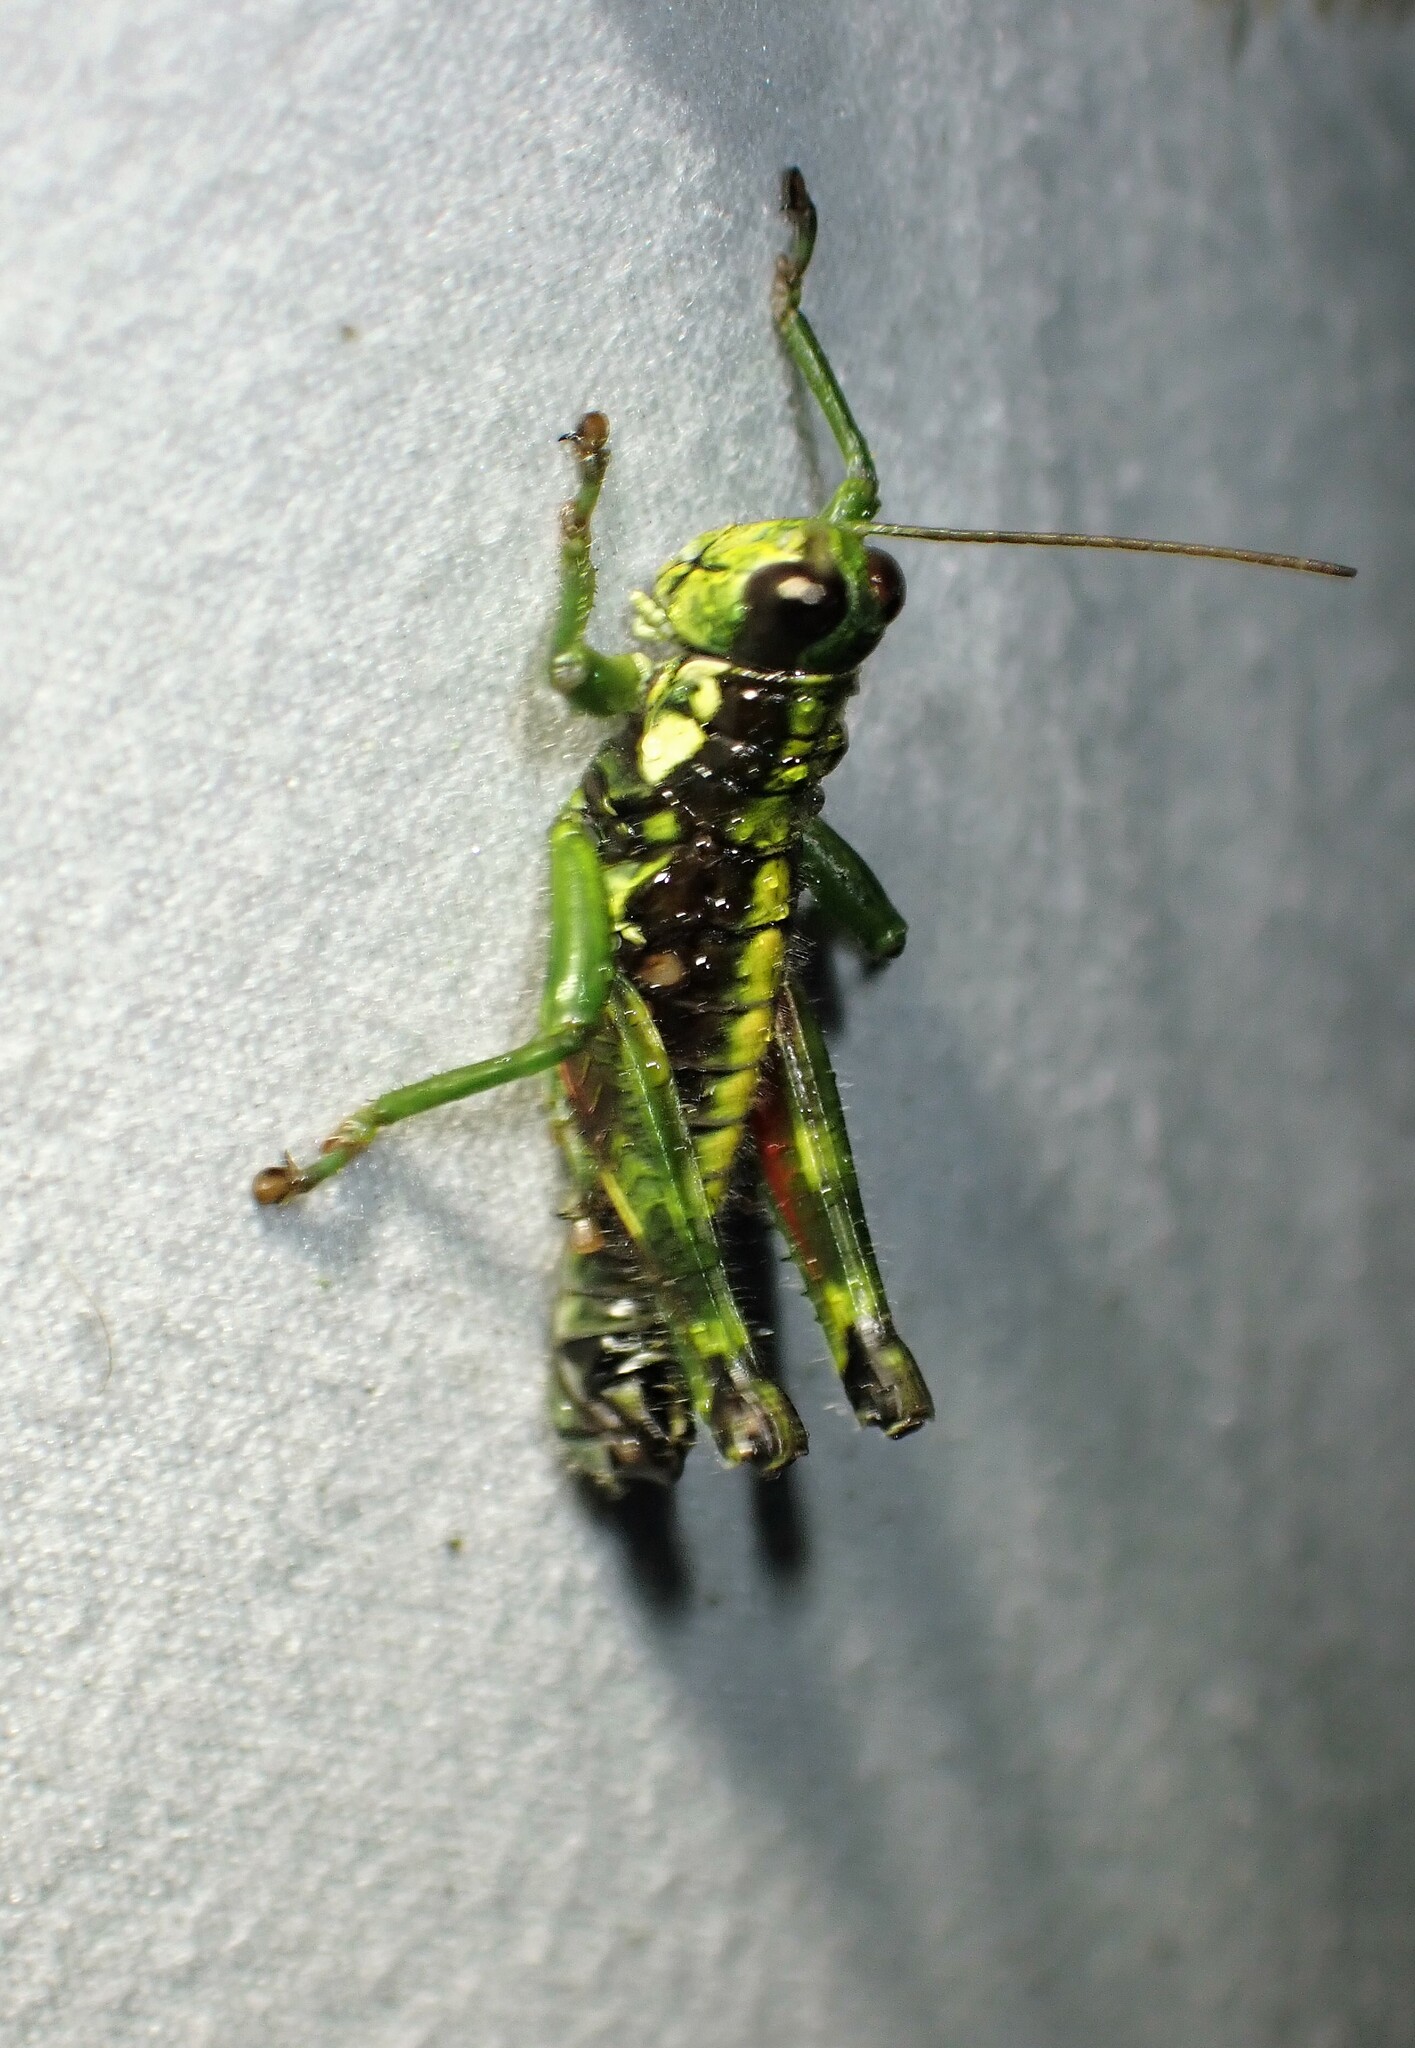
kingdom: Animalia
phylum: Arthropoda
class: Insecta
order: Orthoptera
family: Acrididae
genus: Booneacris
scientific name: Booneacris glacialis
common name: Wingless mountain grasshopper
